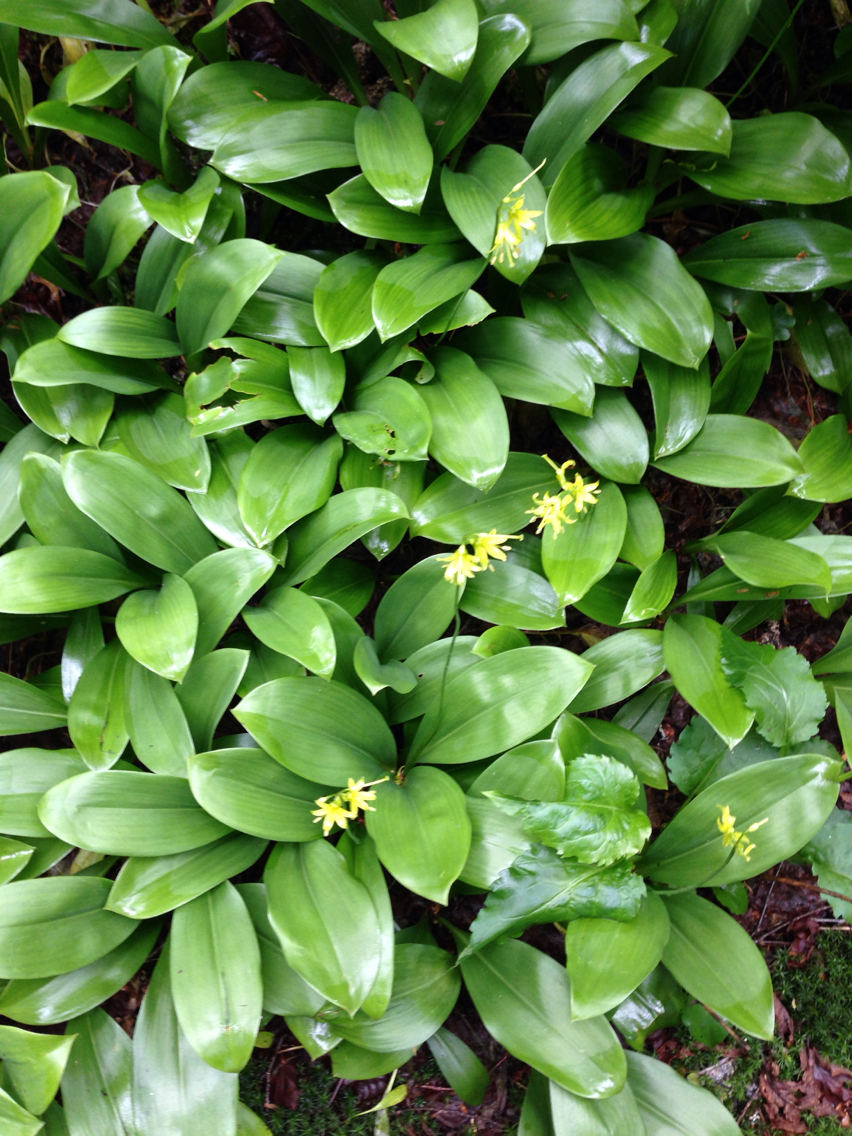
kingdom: Plantae
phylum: Tracheophyta
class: Liliopsida
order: Liliales
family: Liliaceae
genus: Clintonia
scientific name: Clintonia borealis
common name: Yellow clintonia
